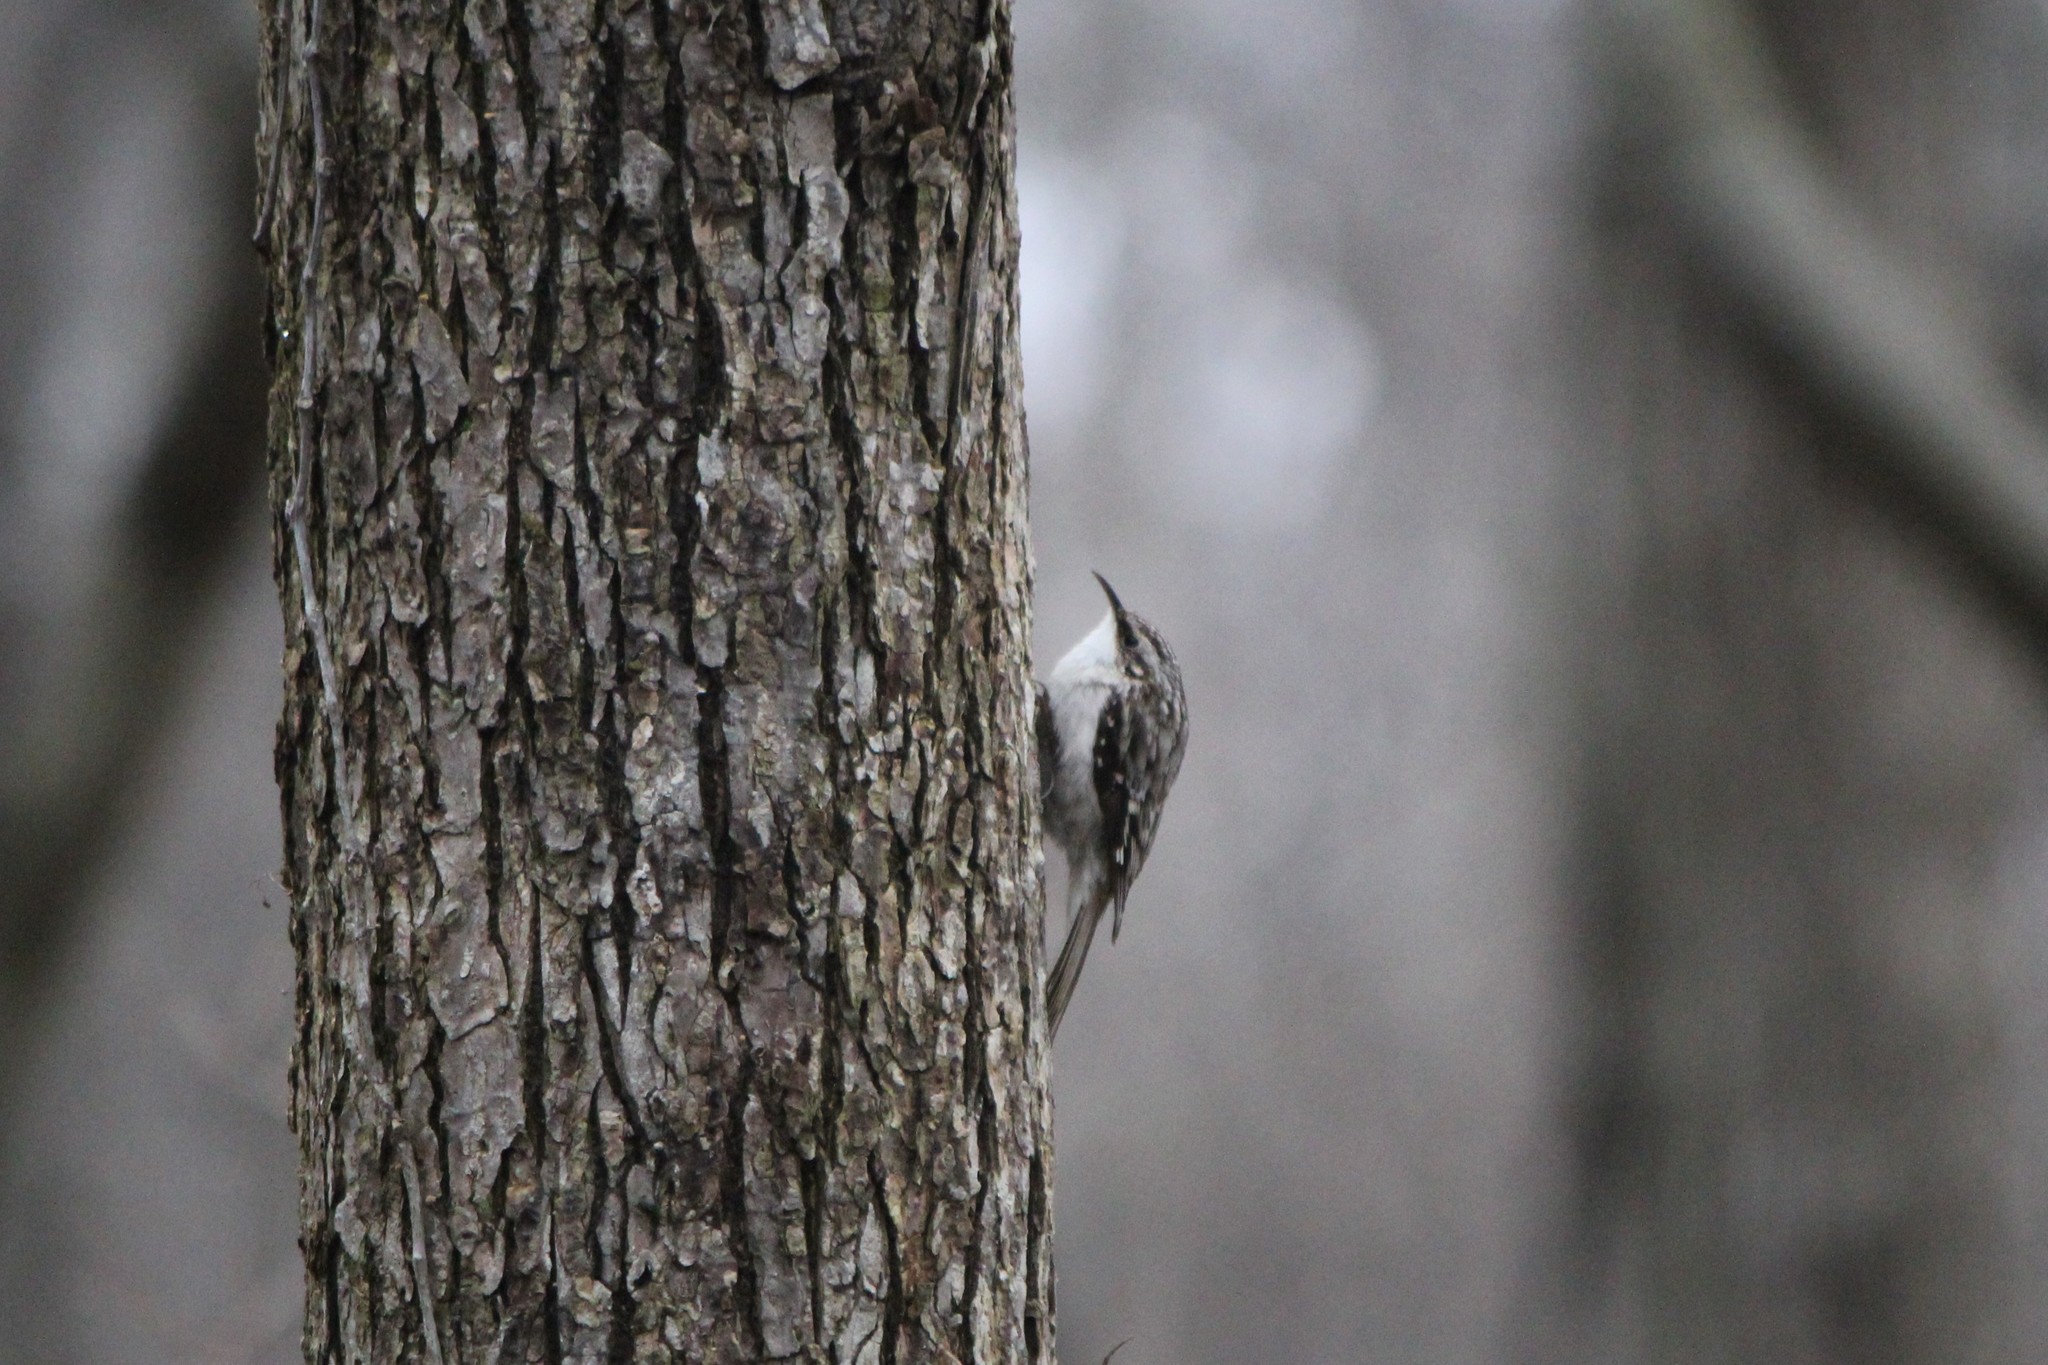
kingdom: Animalia
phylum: Chordata
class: Aves
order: Passeriformes
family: Certhiidae
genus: Certhia
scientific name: Certhia americana
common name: Brown creeper
